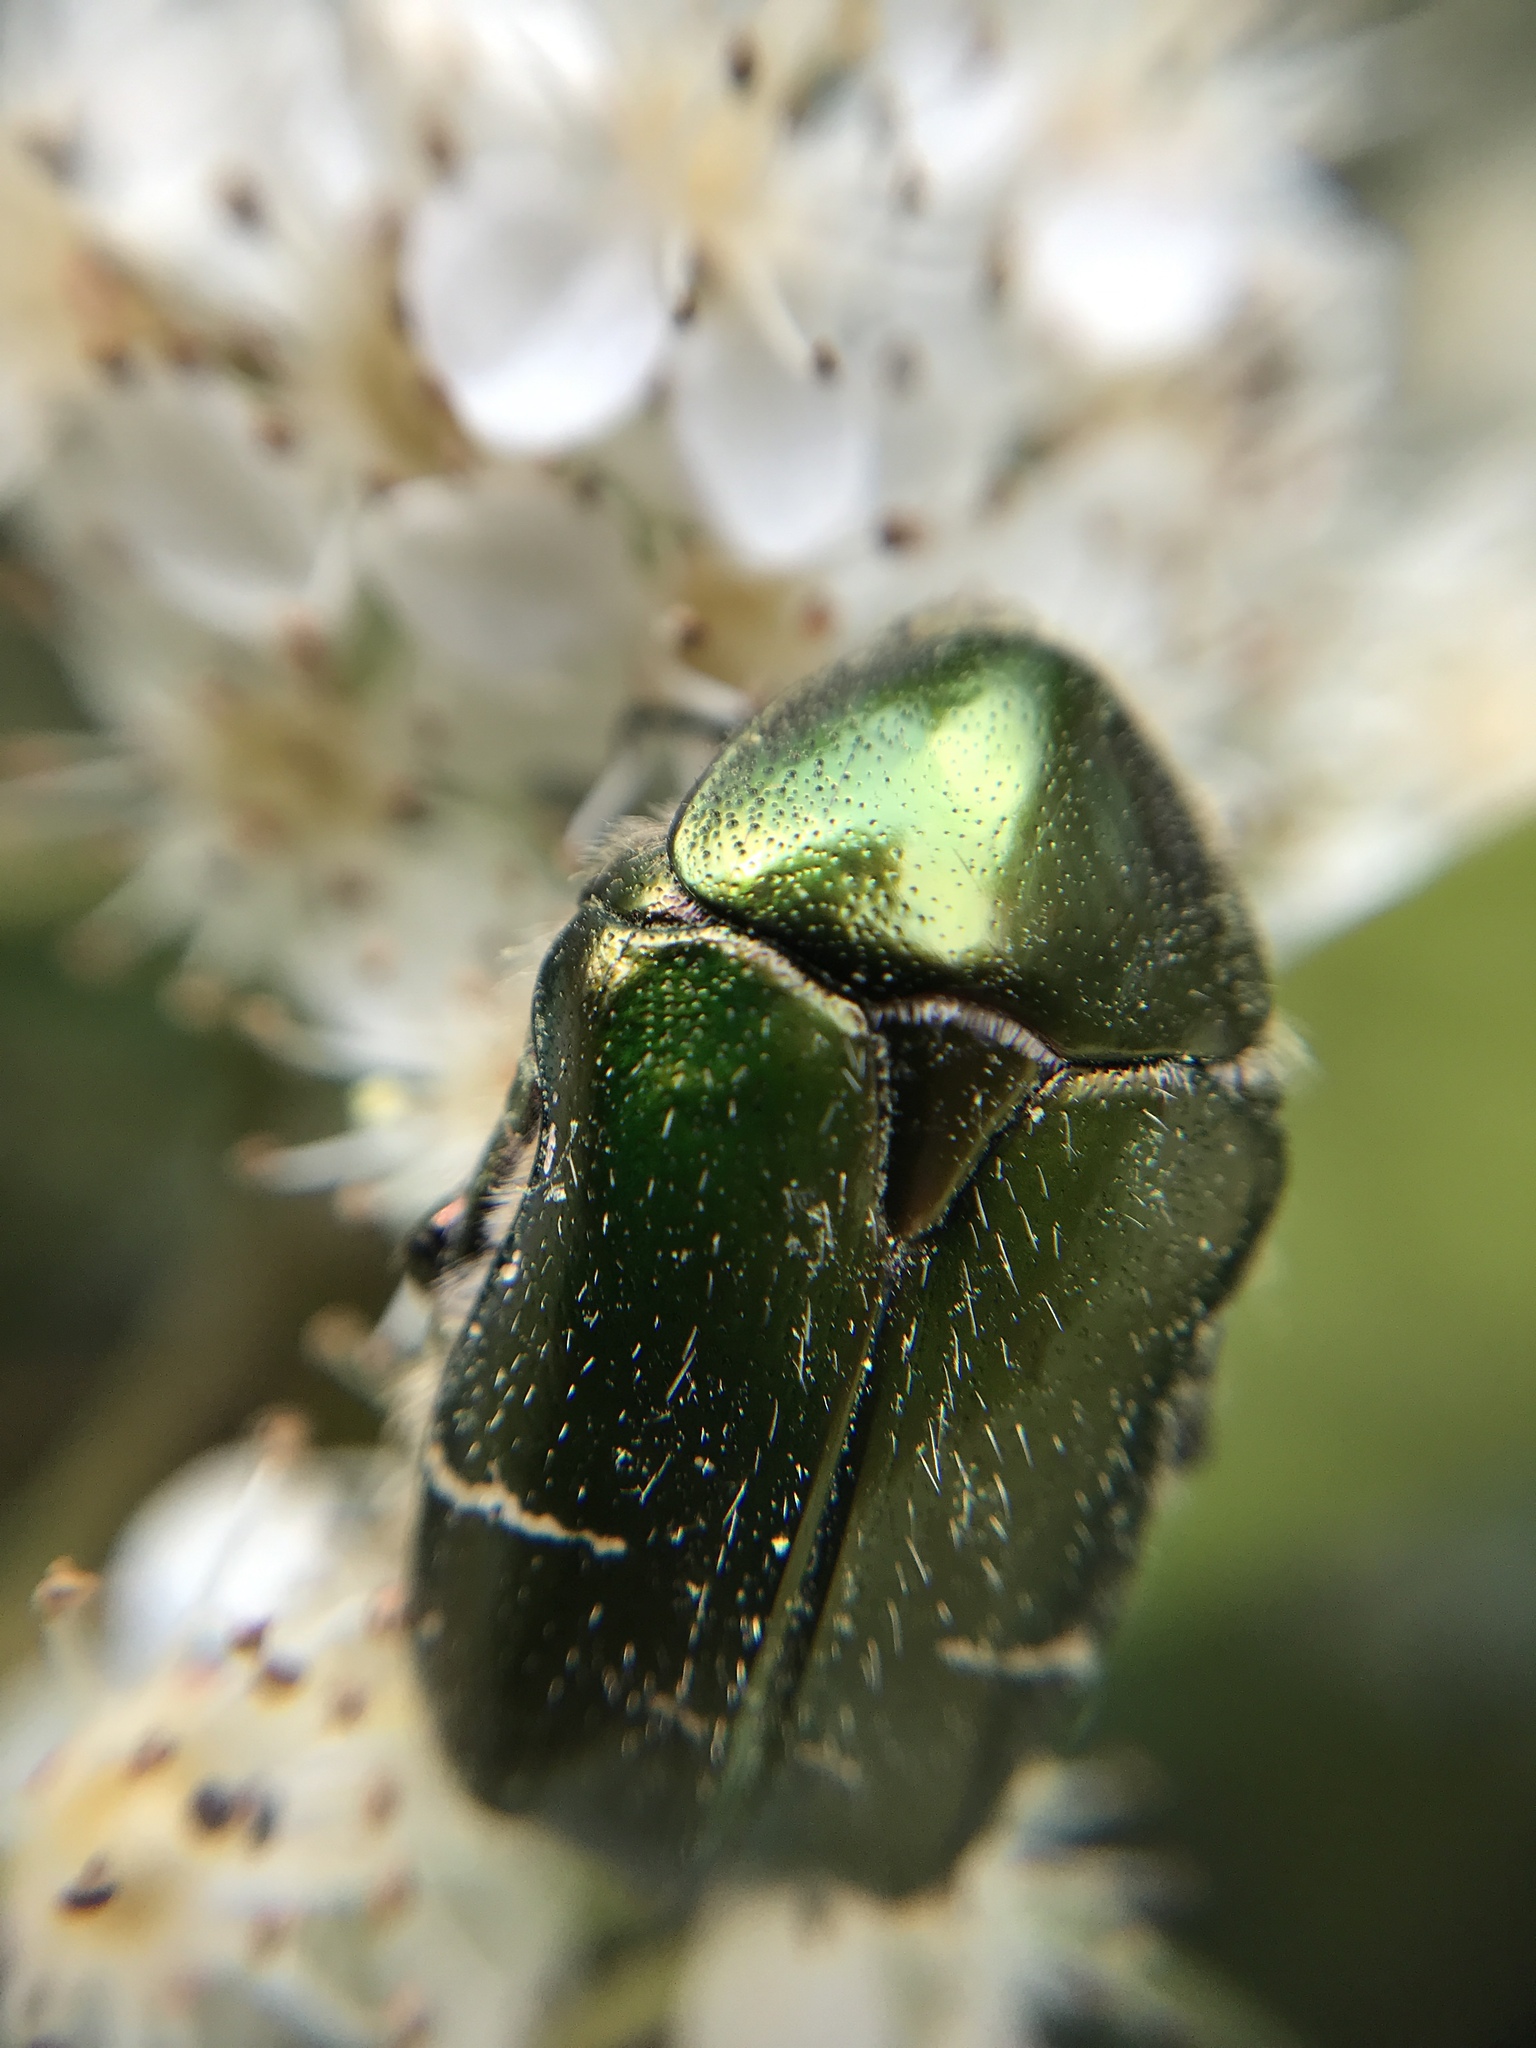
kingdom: Animalia
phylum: Arthropoda
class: Insecta
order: Coleoptera
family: Scarabaeidae
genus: Cetonia
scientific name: Cetonia aurata
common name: Rose chafer
